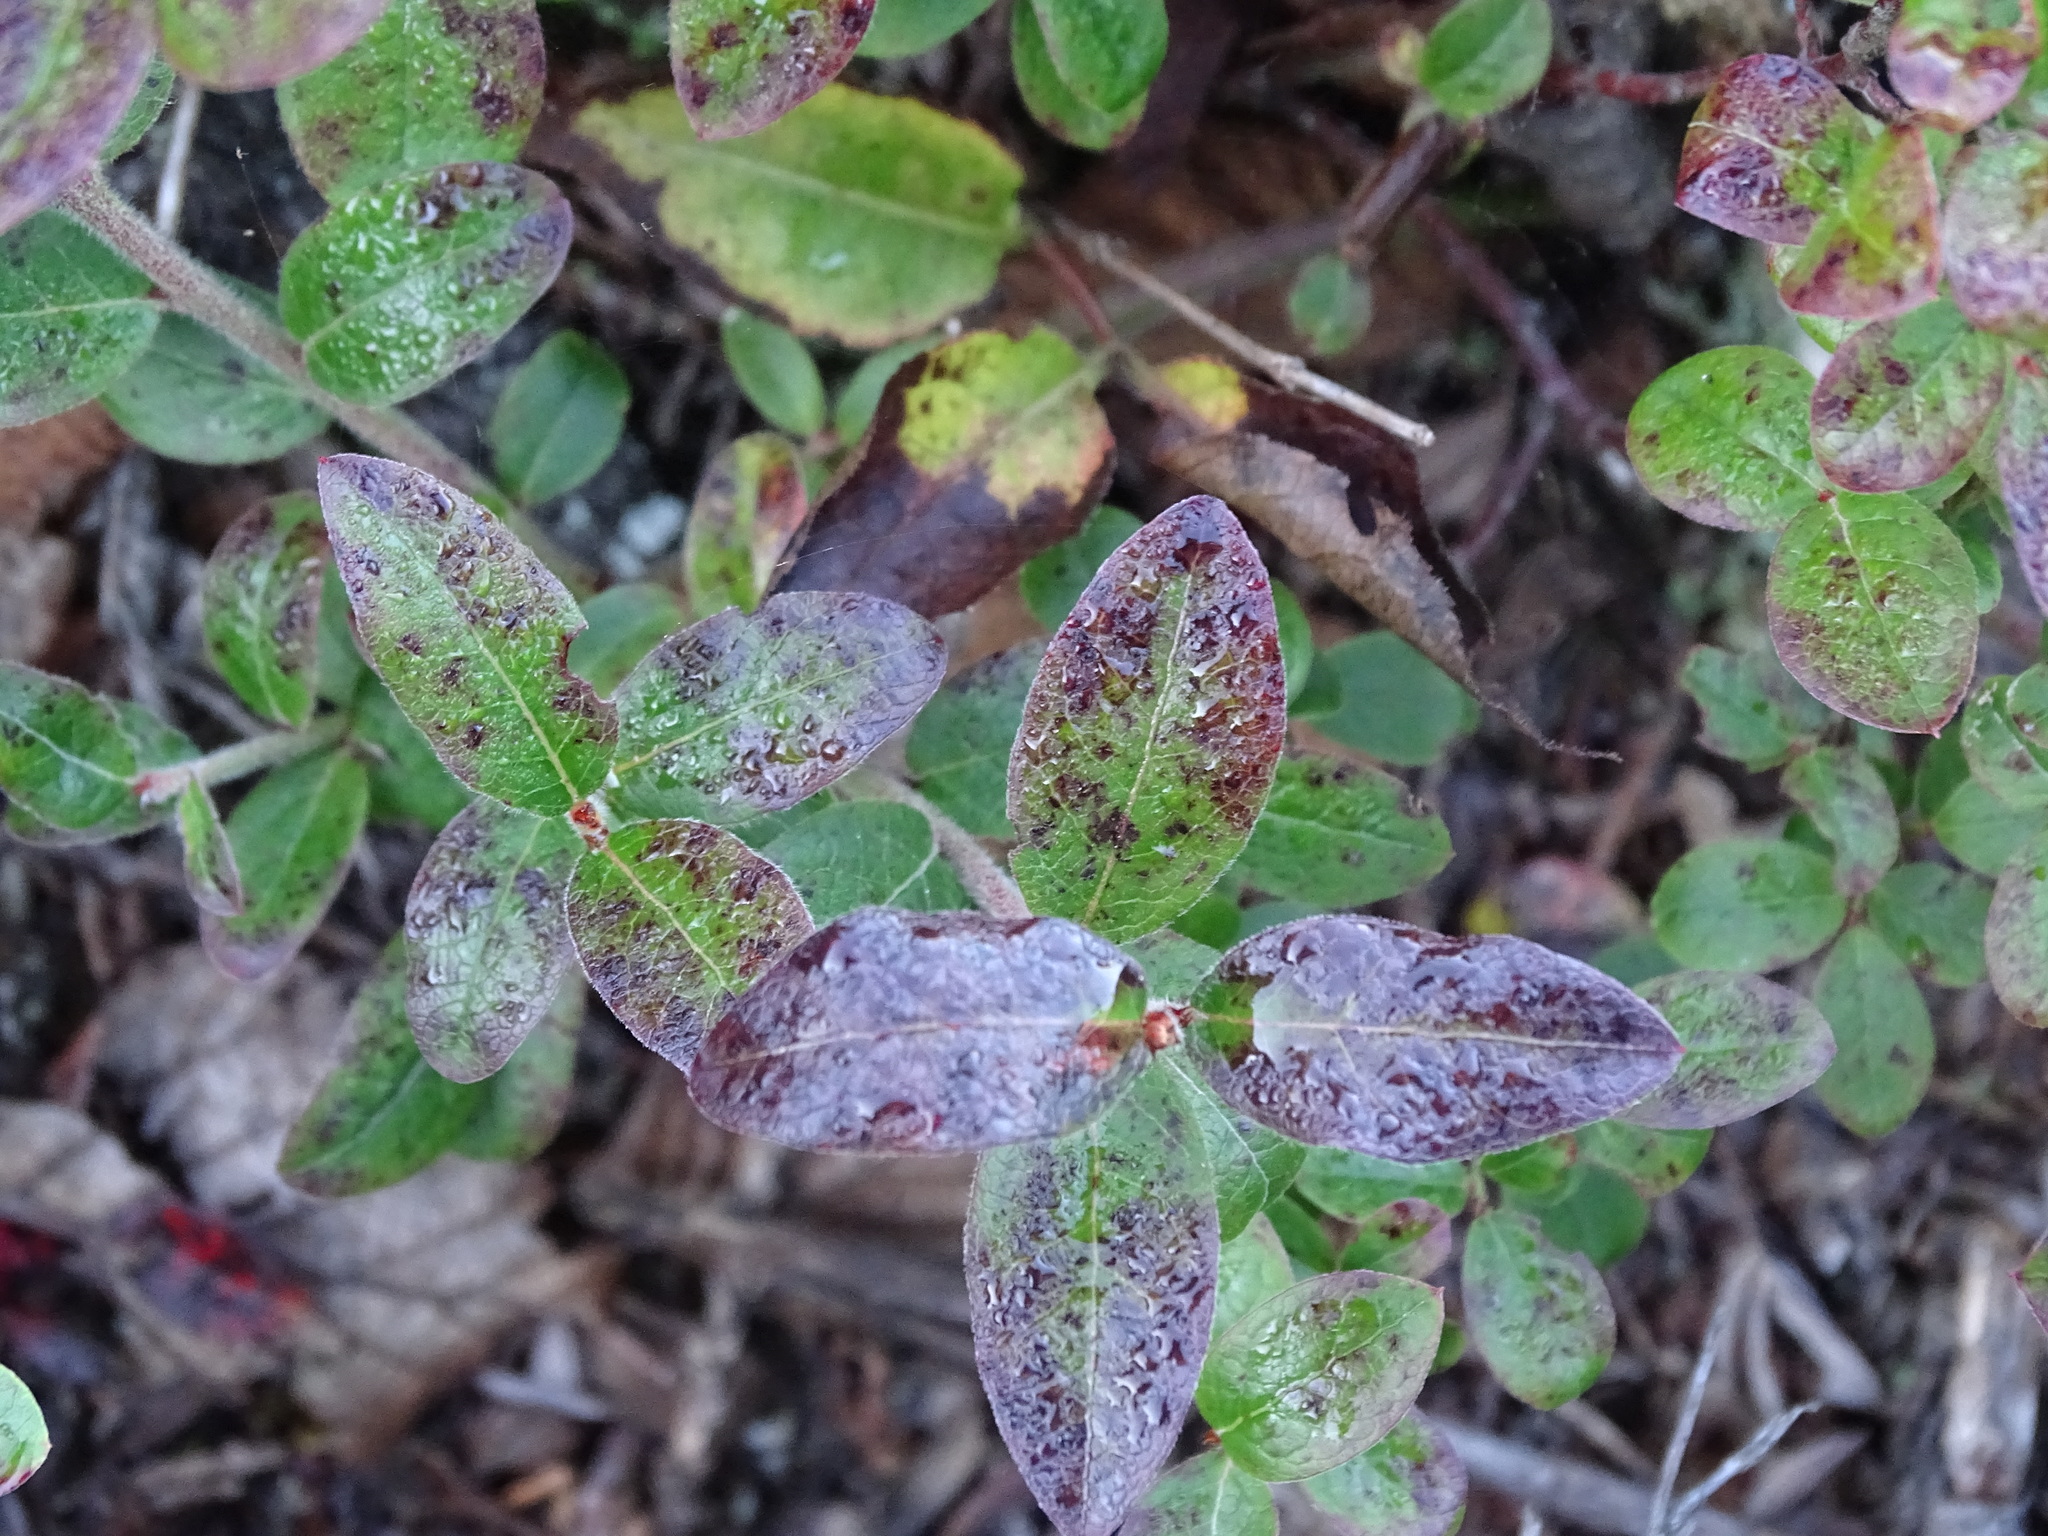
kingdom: Plantae
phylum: Tracheophyta
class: Magnoliopsida
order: Rosales
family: Elaeagnaceae
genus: Shepherdia
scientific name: Shepherdia canadensis
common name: Soapberry
